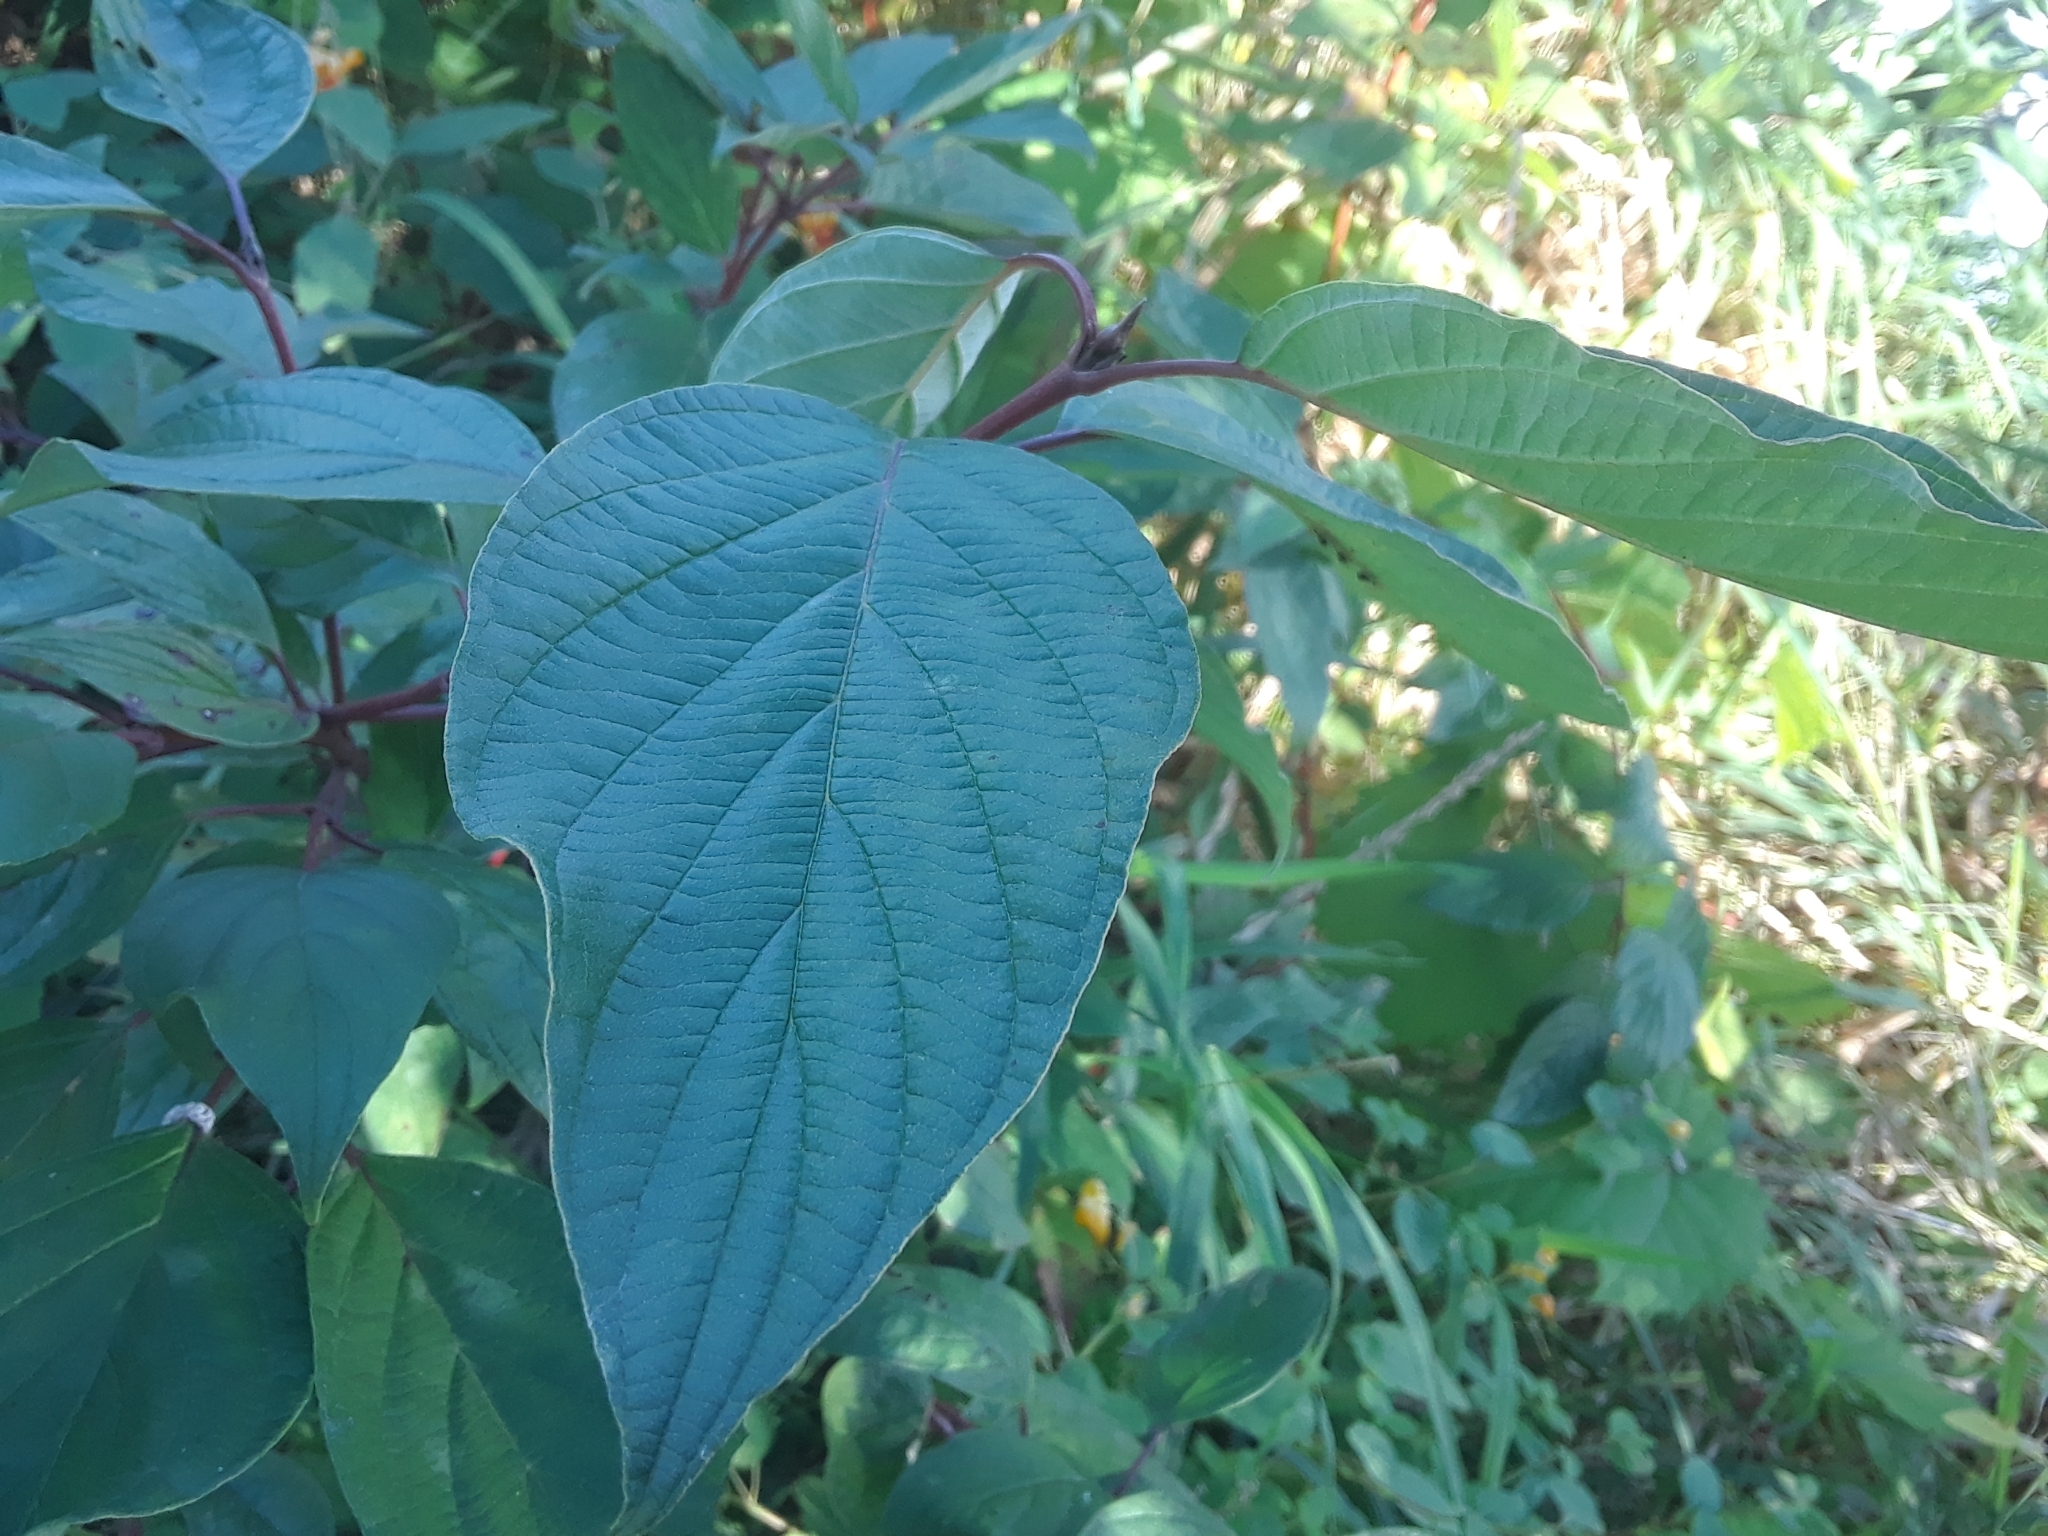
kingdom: Plantae
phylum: Tracheophyta
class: Magnoliopsida
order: Cornales
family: Cornaceae
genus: Cornus
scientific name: Cornus sericea
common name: Red-osier dogwood
